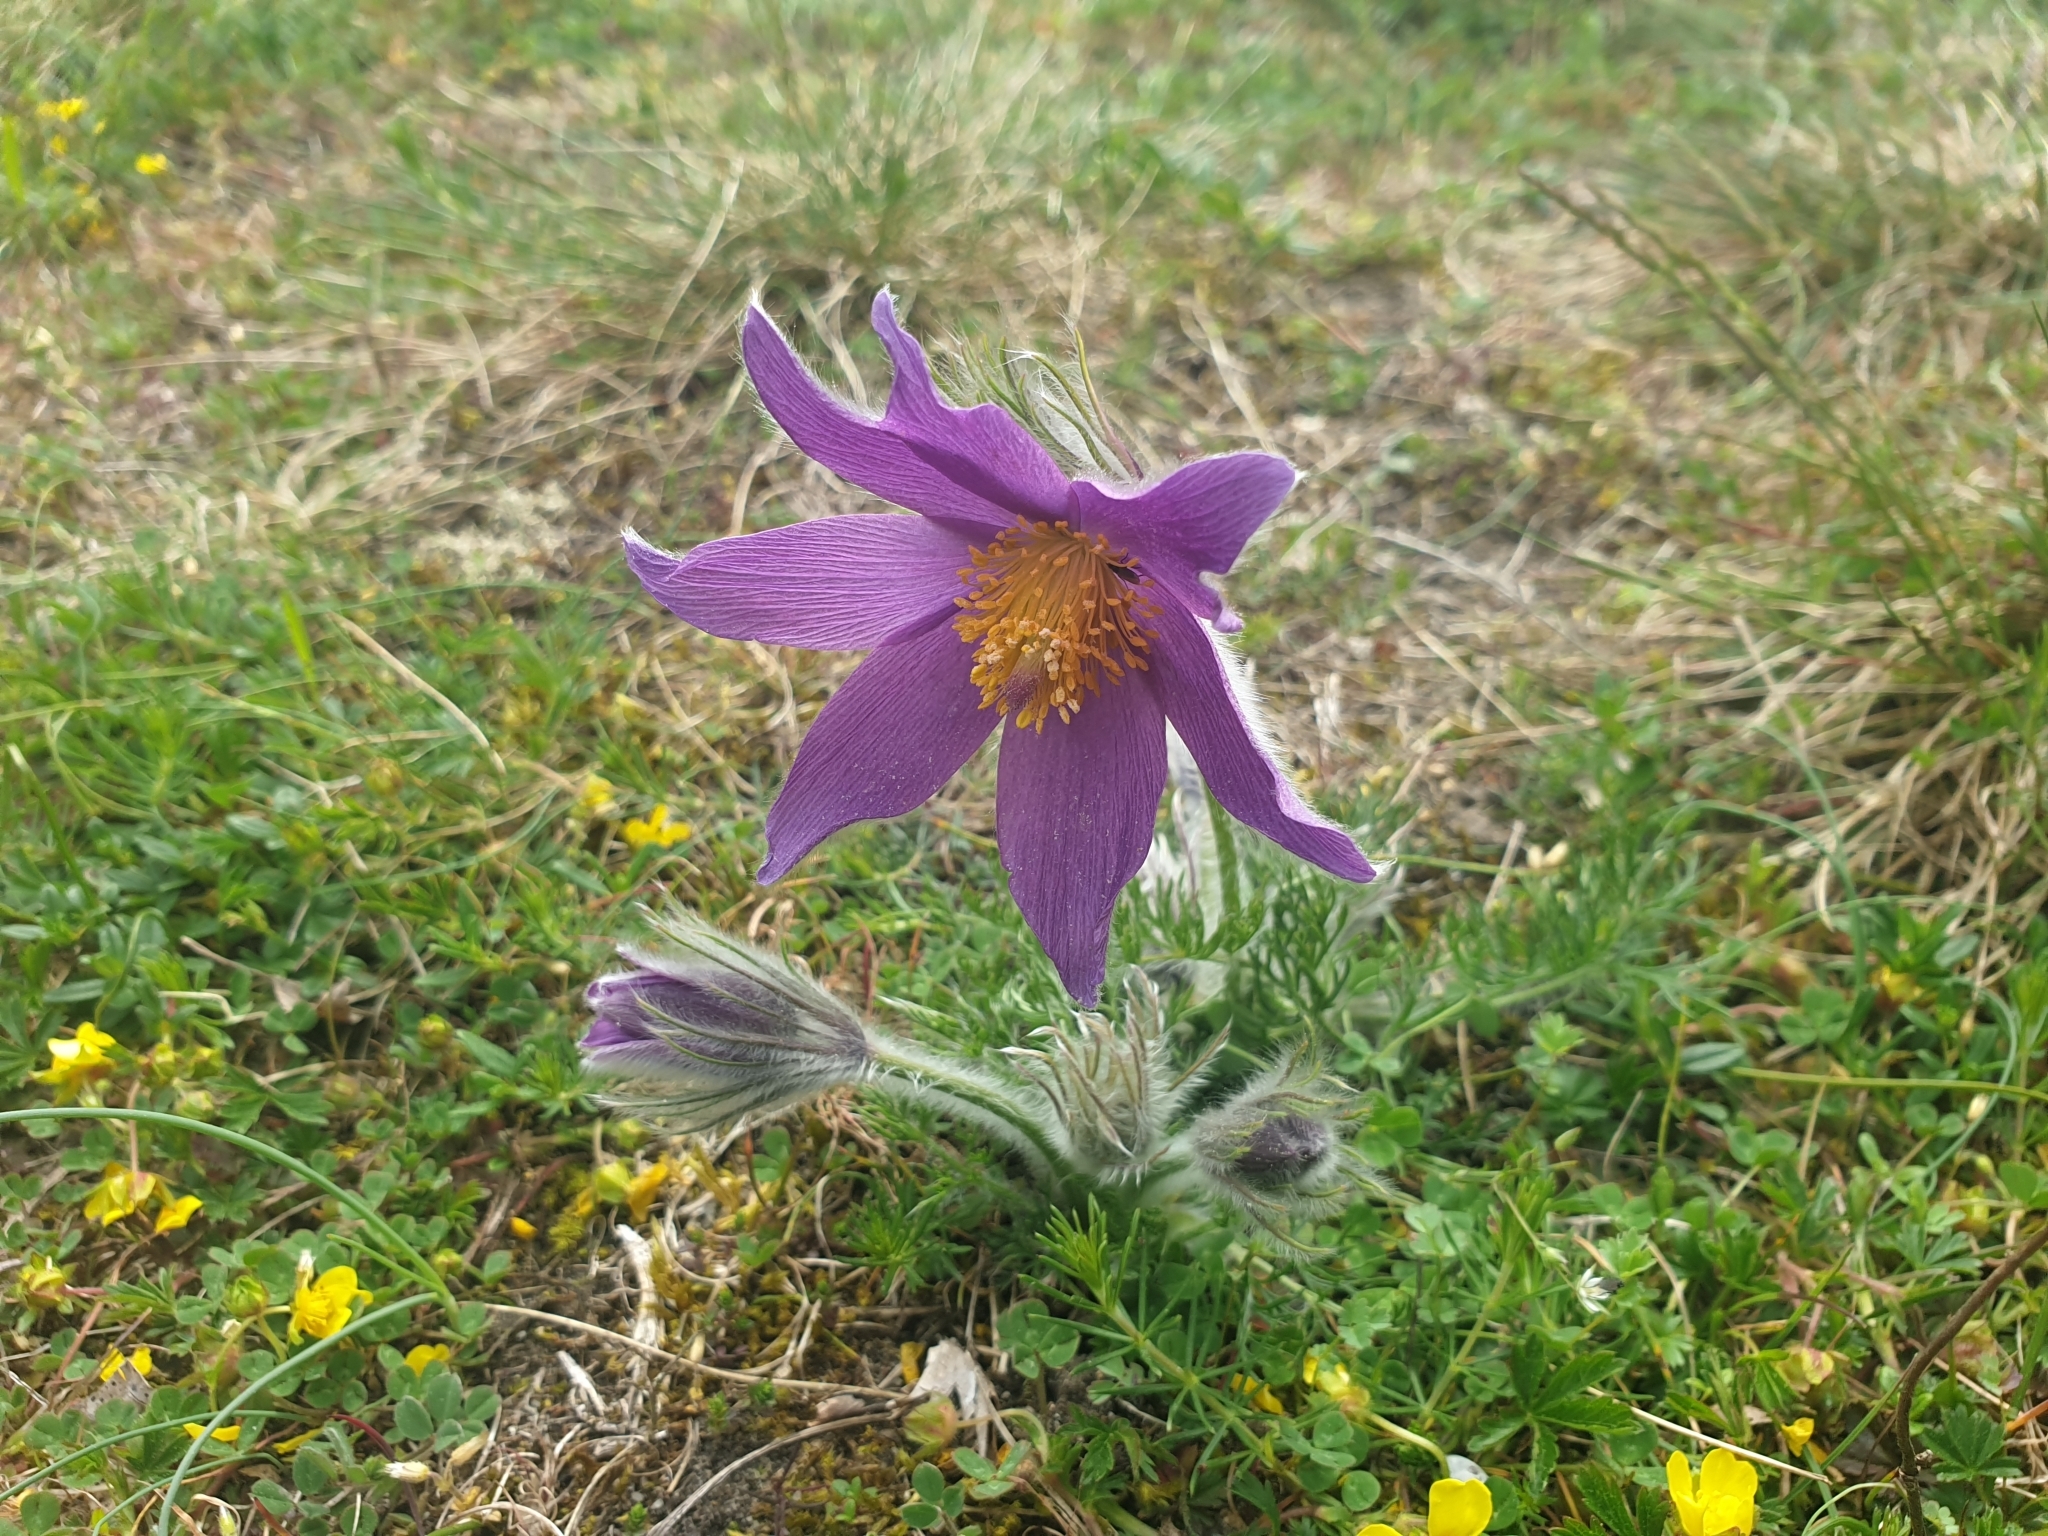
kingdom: Plantae
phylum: Tracheophyta
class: Magnoliopsida
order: Ranunculales
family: Ranunculaceae
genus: Pulsatilla
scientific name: Pulsatilla vulgaris
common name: Pasqueflower
